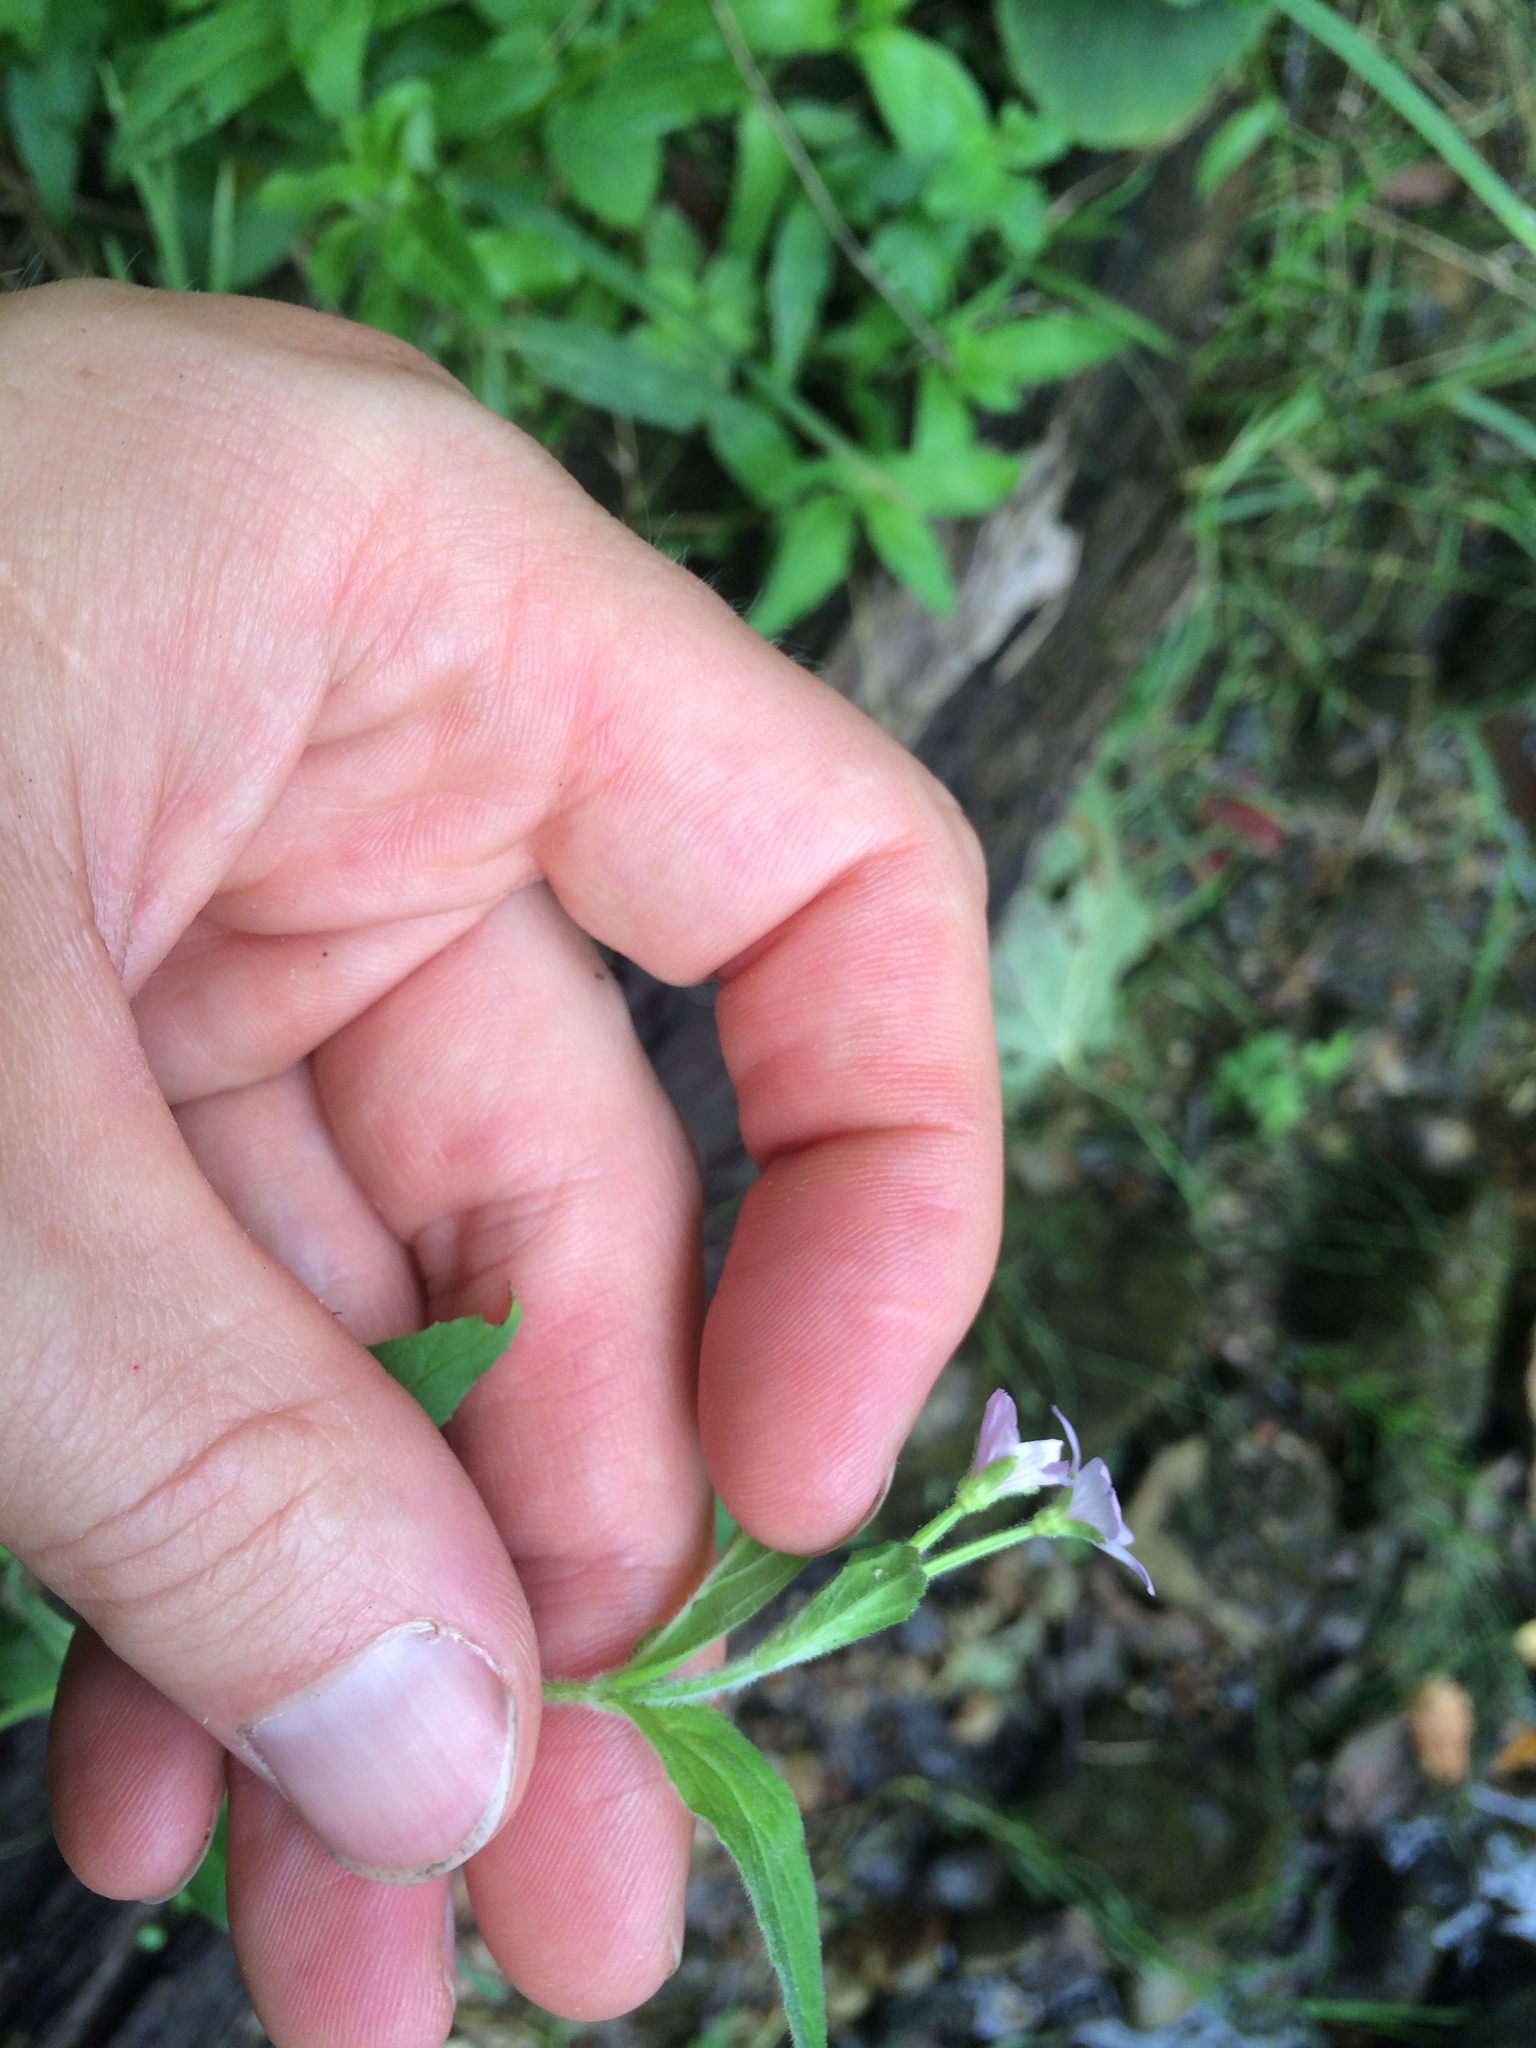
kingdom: Plantae
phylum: Tracheophyta
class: Magnoliopsida
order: Myrtales
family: Onagraceae
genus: Epilobium
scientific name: Epilobium parviflorum
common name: Hoary willowherb
